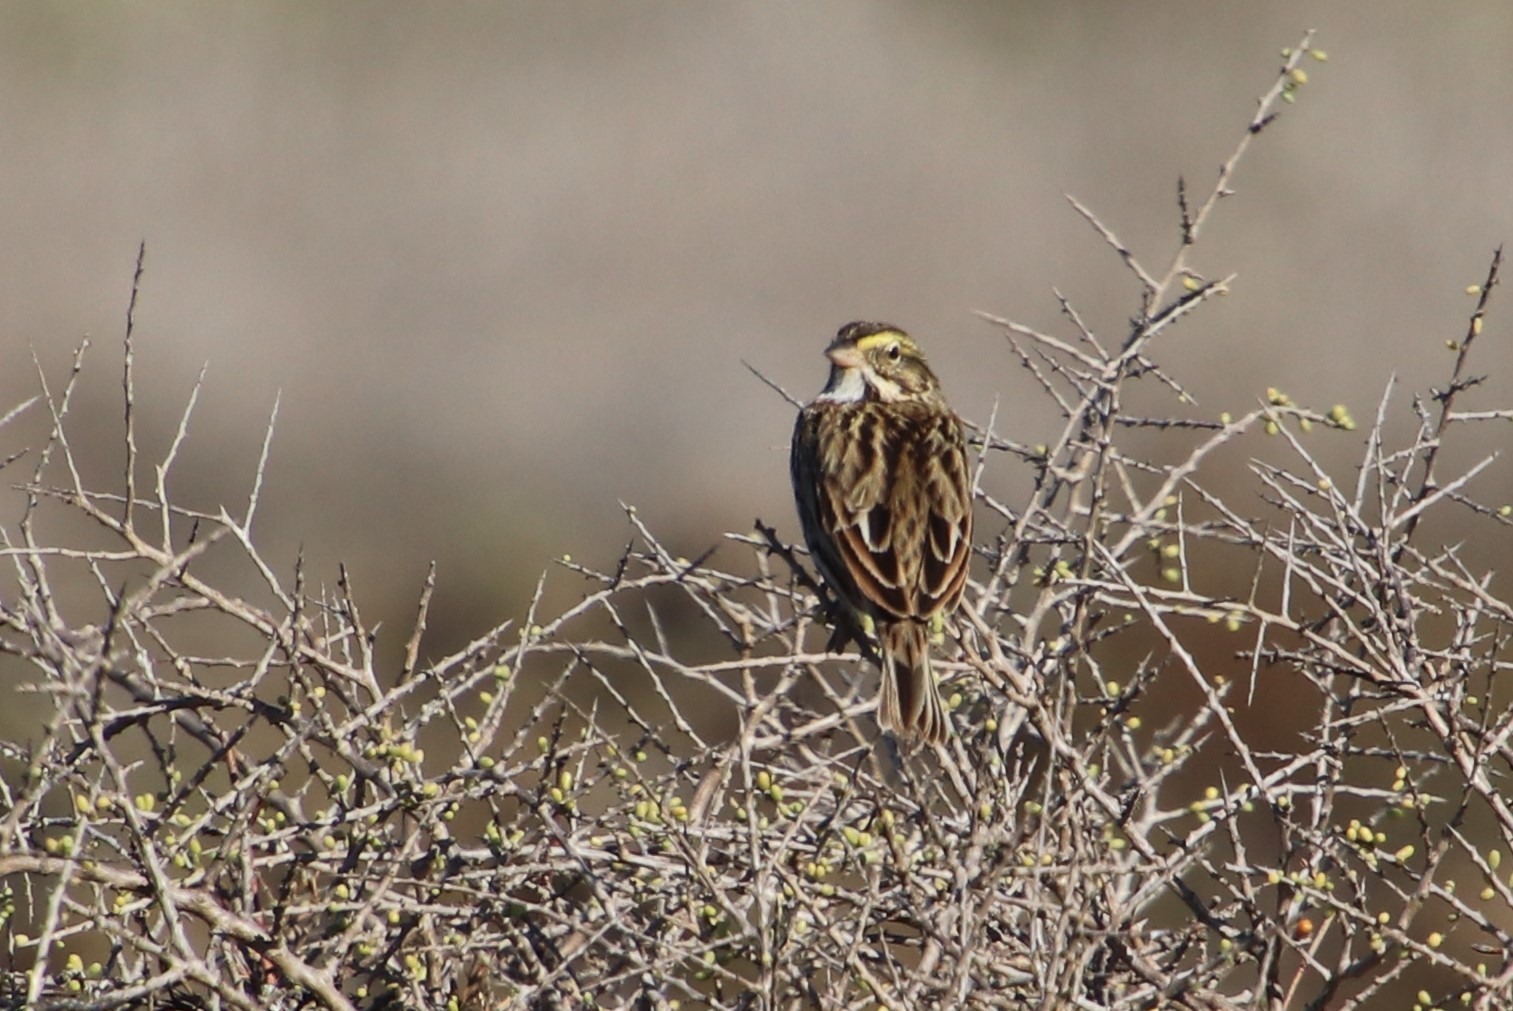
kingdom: Animalia
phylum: Chordata
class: Aves
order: Passeriformes
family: Passerellidae
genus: Passerculus
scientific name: Passerculus sandwichensis
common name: Savannah sparrow
